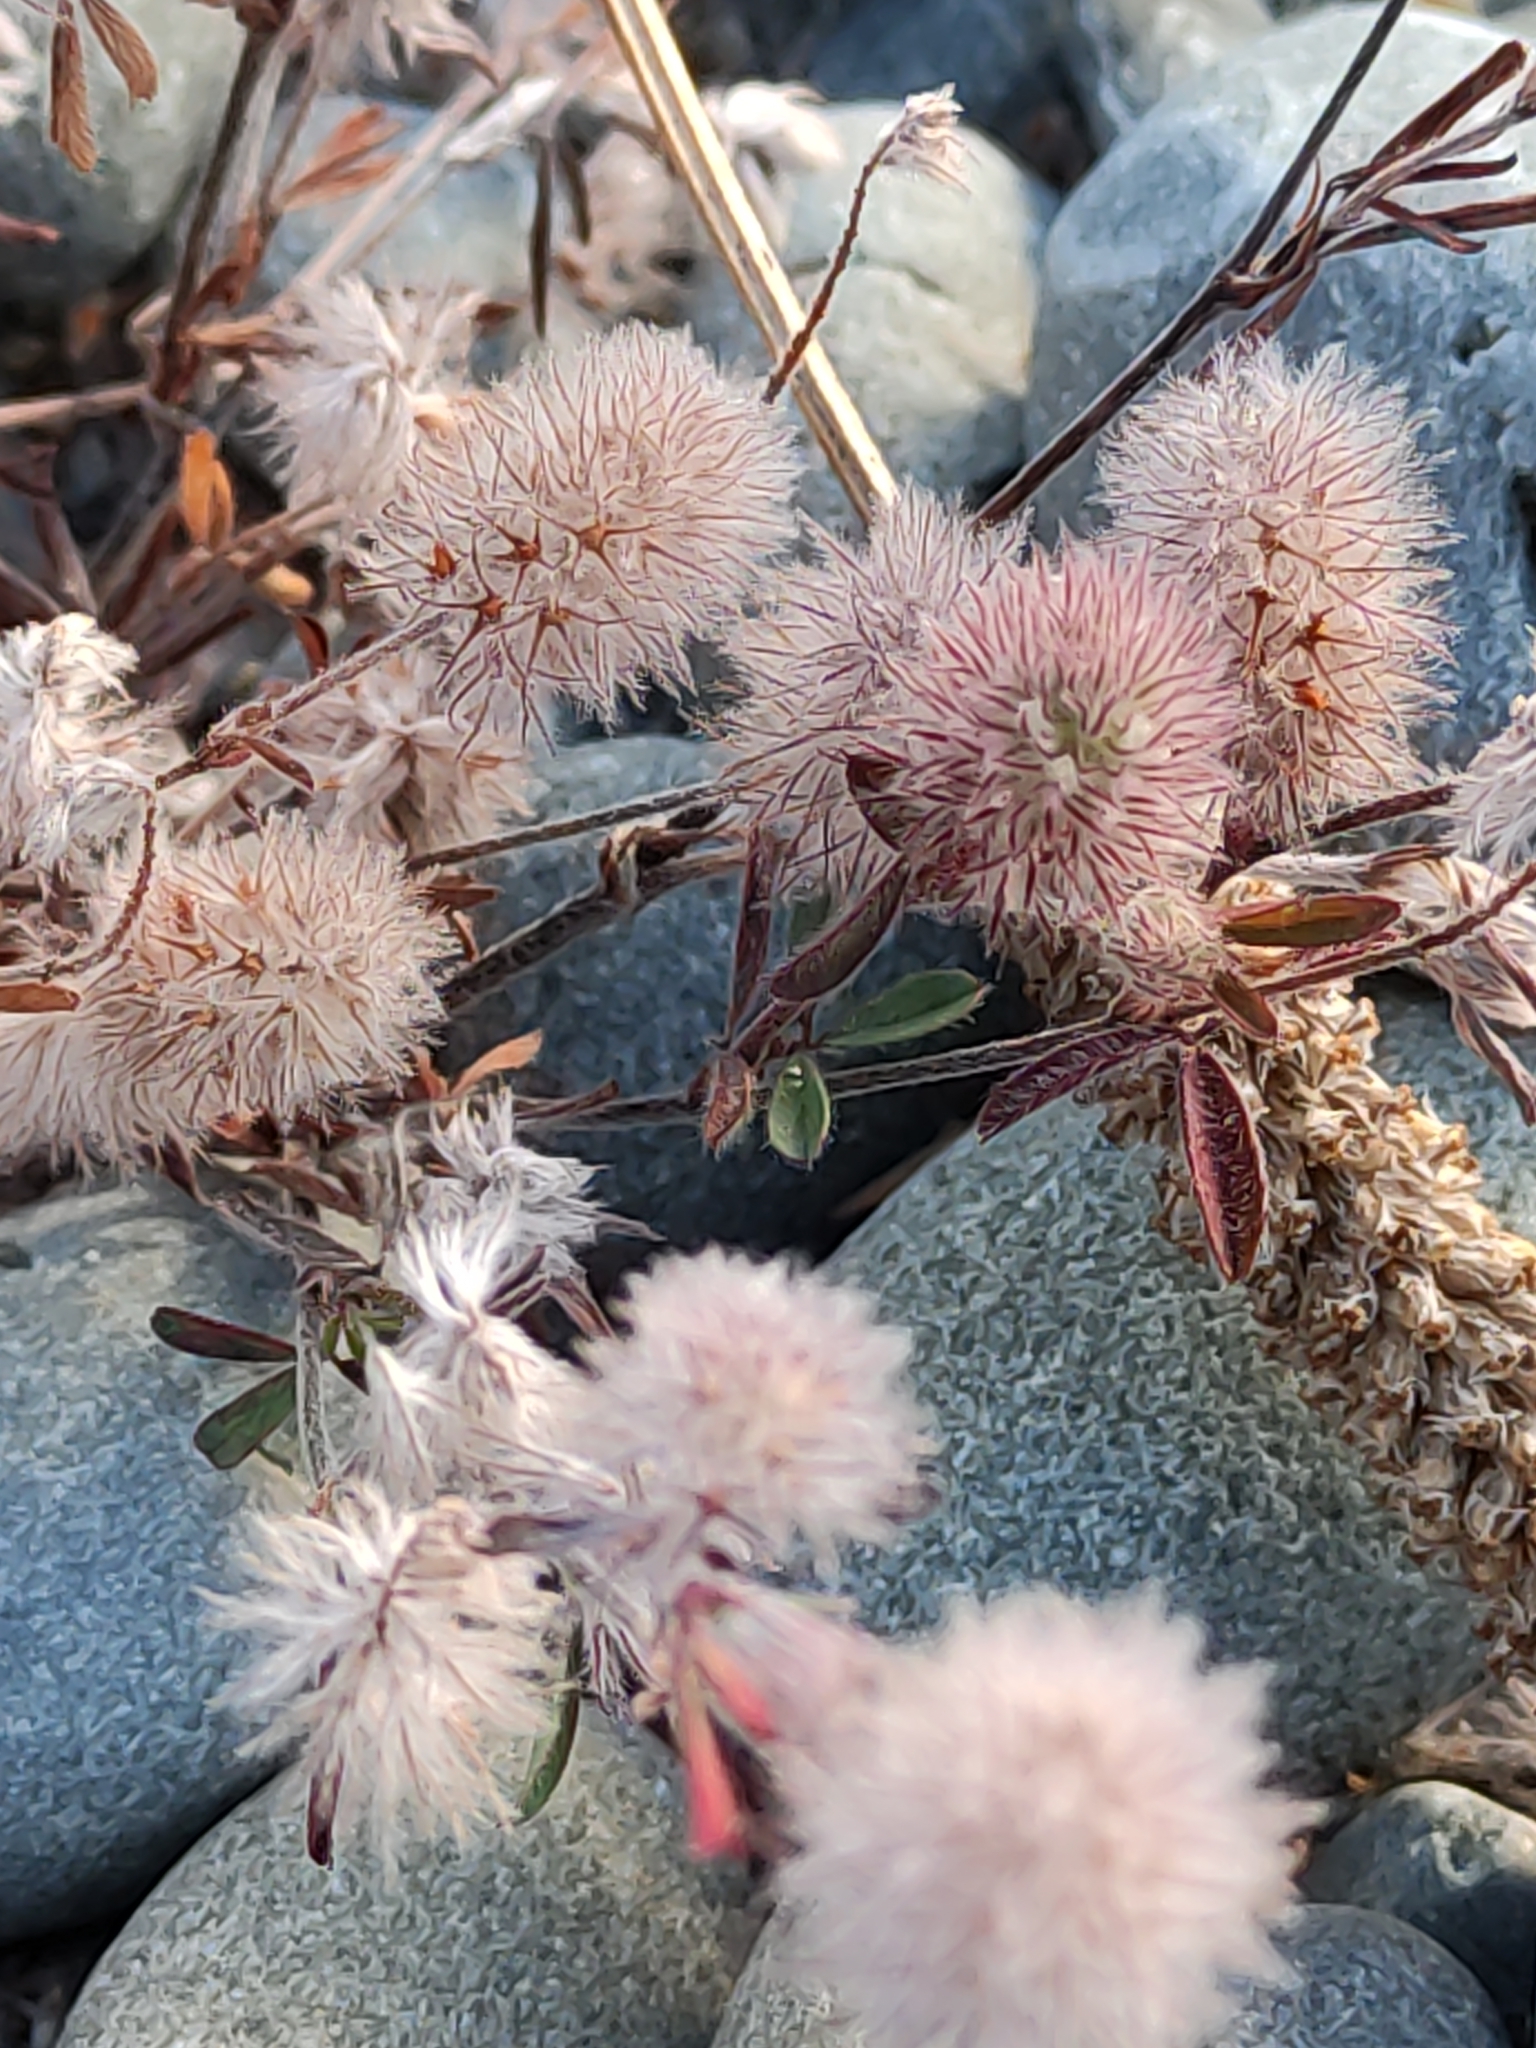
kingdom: Plantae
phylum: Tracheophyta
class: Magnoliopsida
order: Fabales
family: Fabaceae
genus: Trifolium
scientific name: Trifolium arvense
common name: Hare's-foot clover
